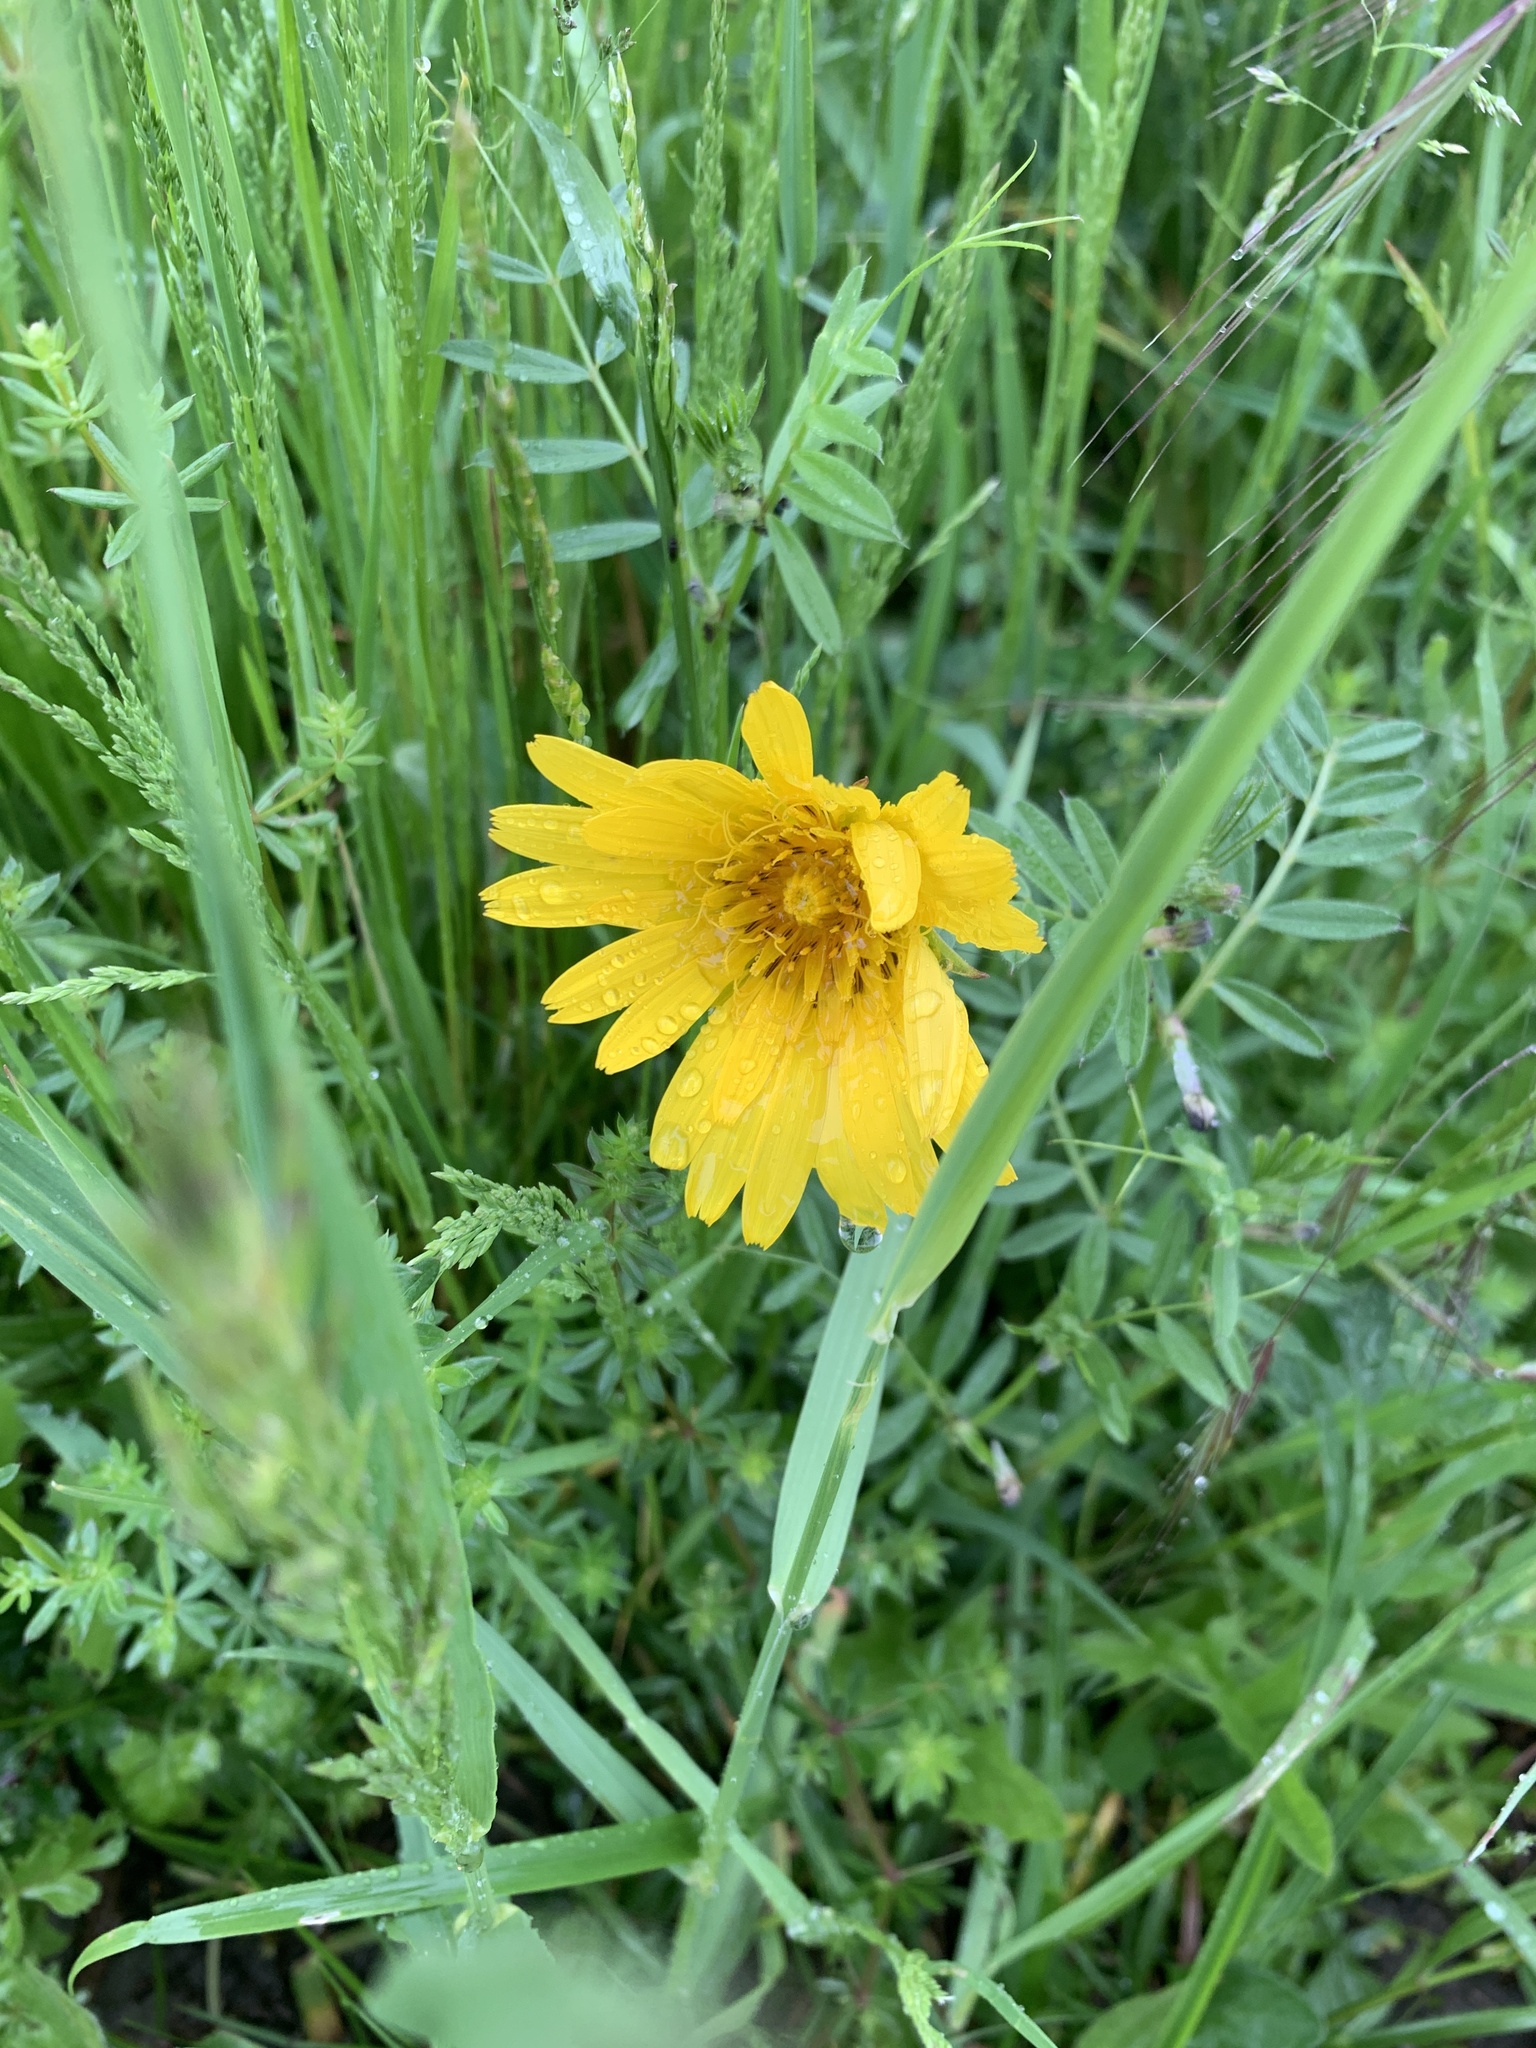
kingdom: Plantae
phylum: Tracheophyta
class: Magnoliopsida
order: Asterales
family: Asteraceae
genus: Tragopogon
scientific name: Tragopogon orientalis
